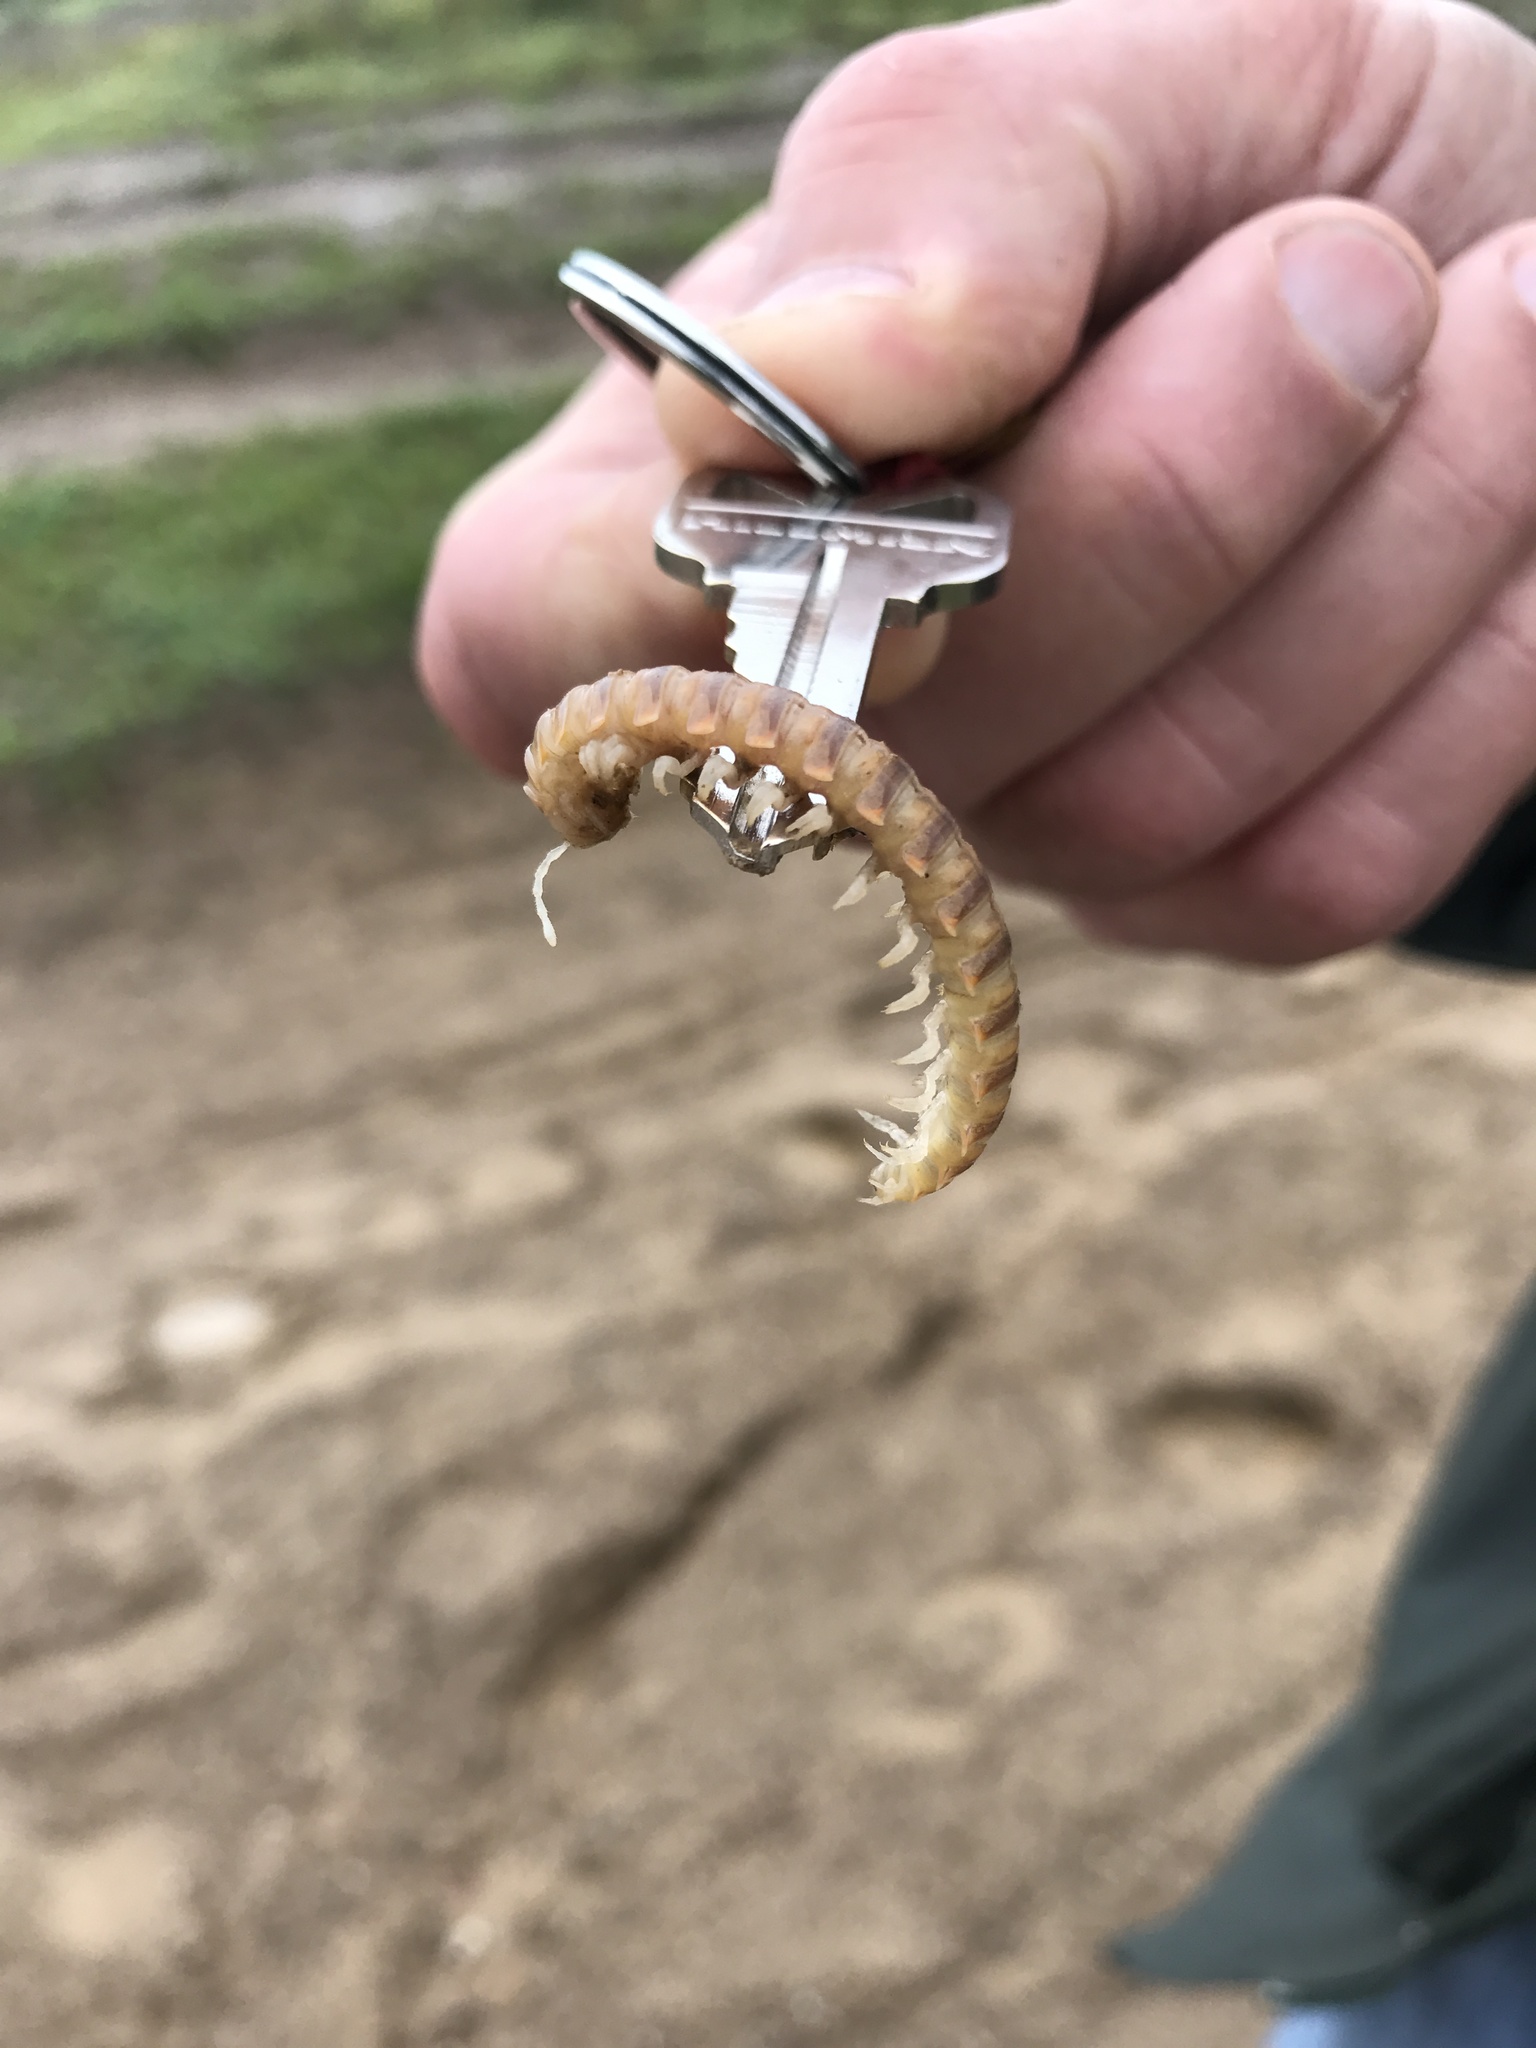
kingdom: Animalia
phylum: Arthropoda
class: Diplopoda
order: Polydesmida
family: Xystodesmidae
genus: Xystocheir
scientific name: Xystocheir dissecta
